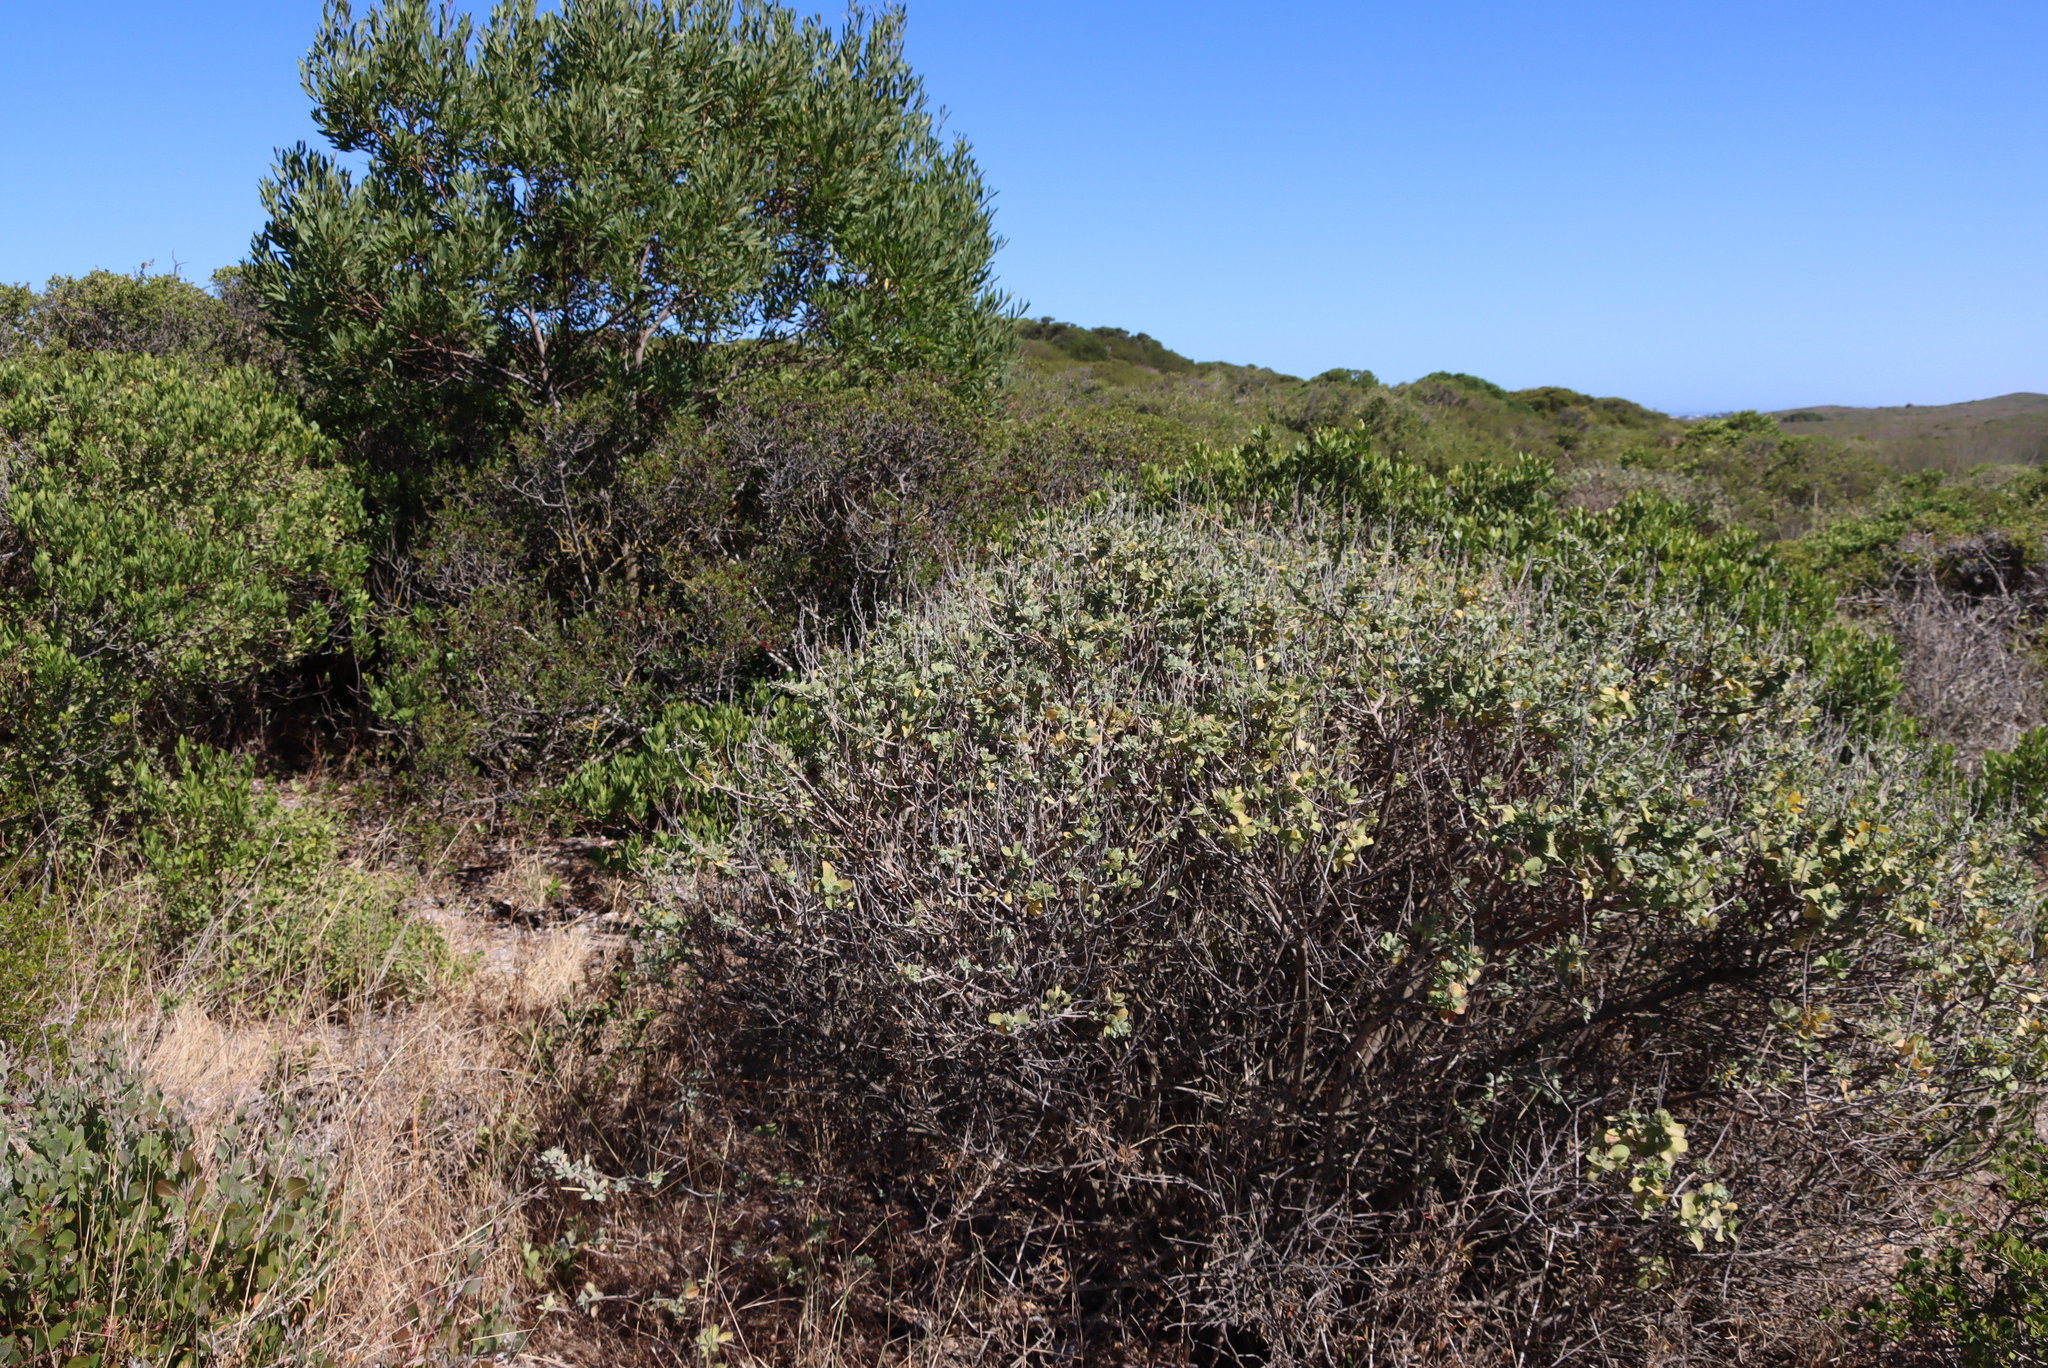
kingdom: Plantae
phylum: Tracheophyta
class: Magnoliopsida
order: Lamiales
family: Lamiaceae
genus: Salvia
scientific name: Salvia aurea
